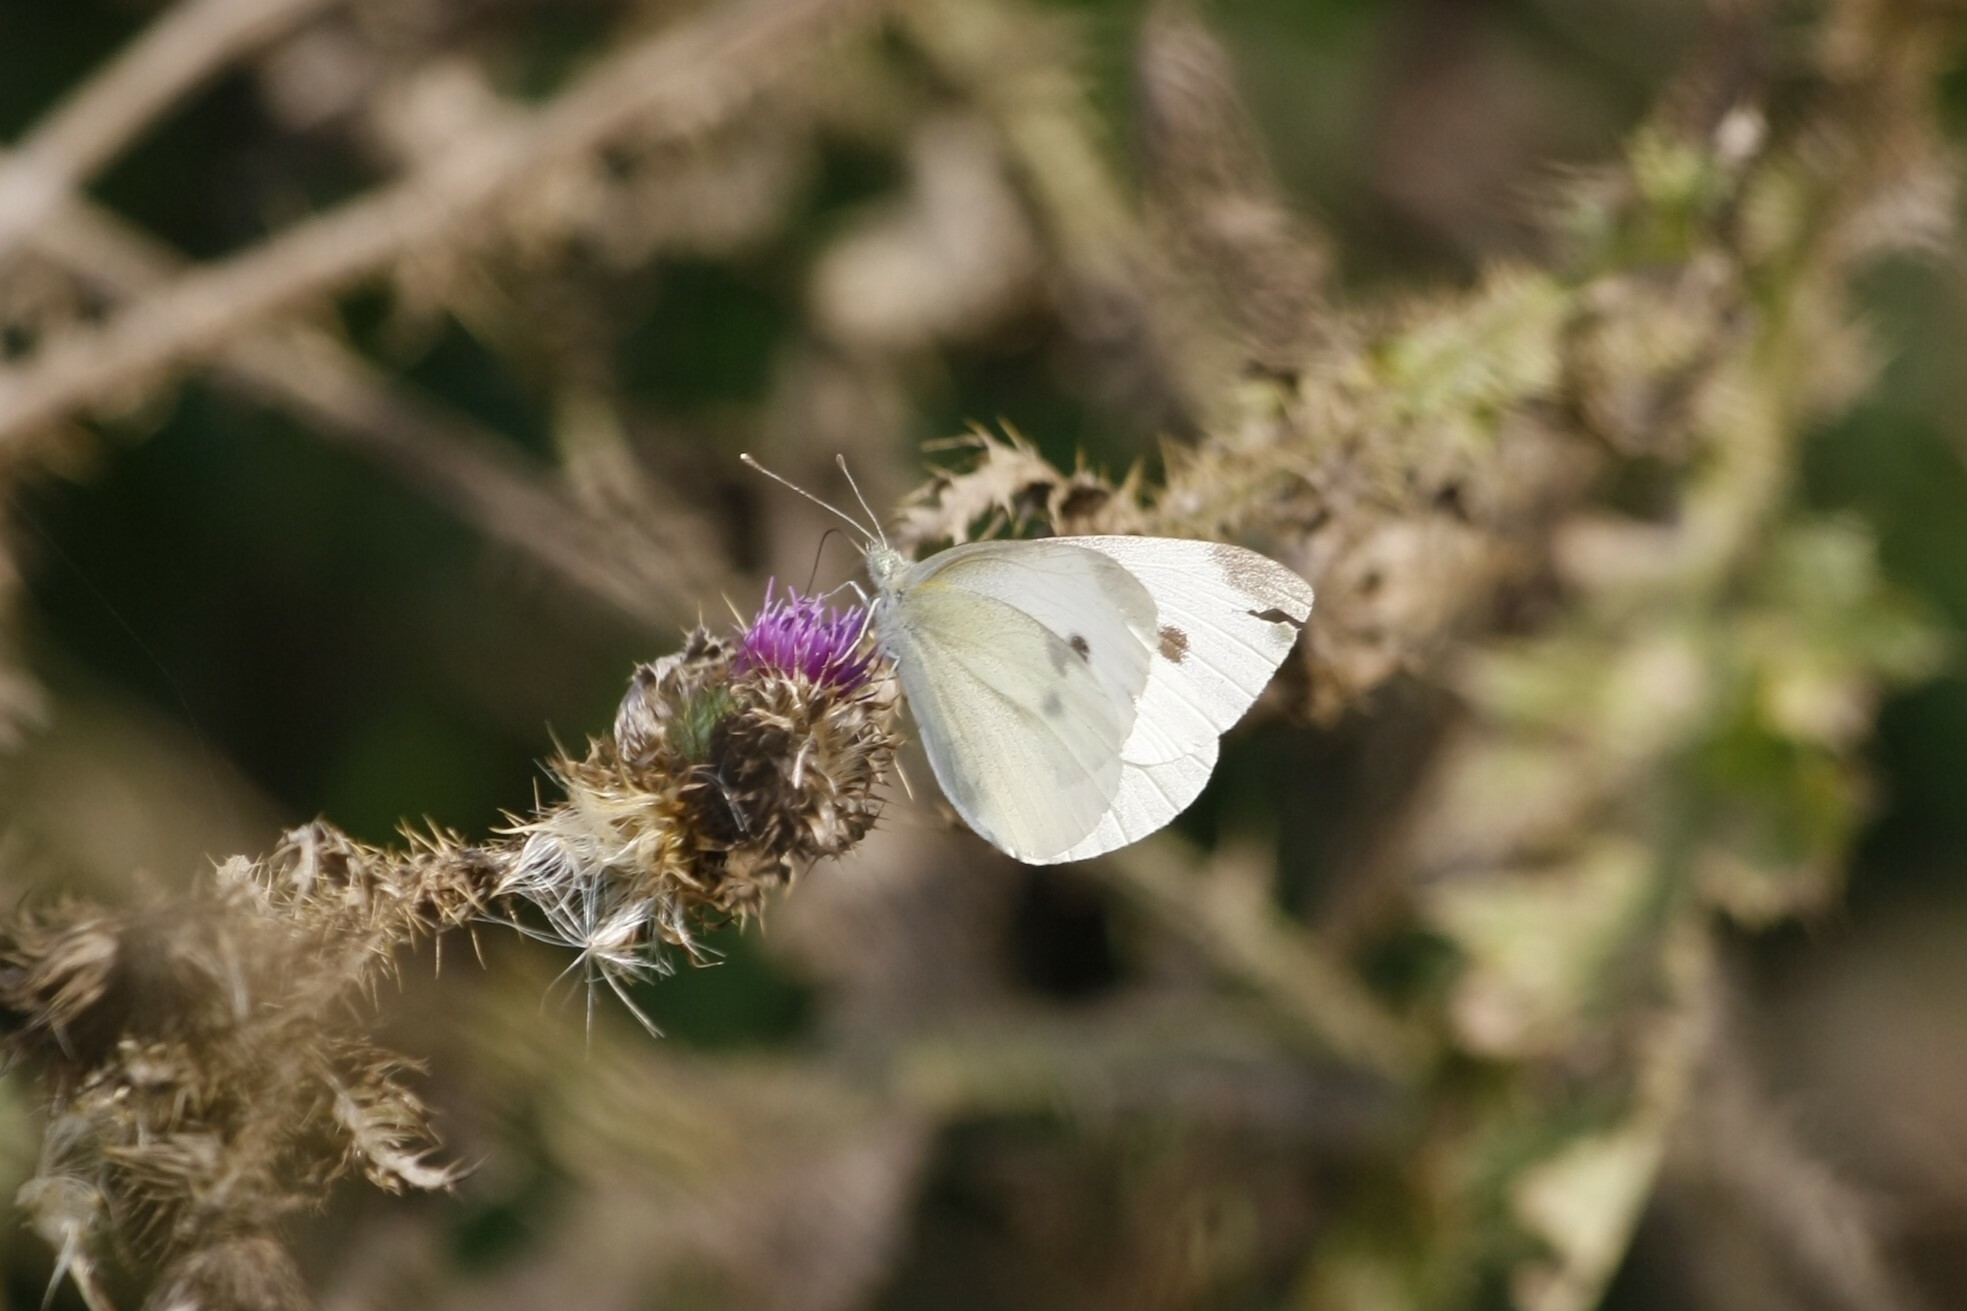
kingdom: Animalia
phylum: Arthropoda
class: Insecta
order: Lepidoptera
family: Pieridae
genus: Pieris
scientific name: Pieris rapae
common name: Small white
